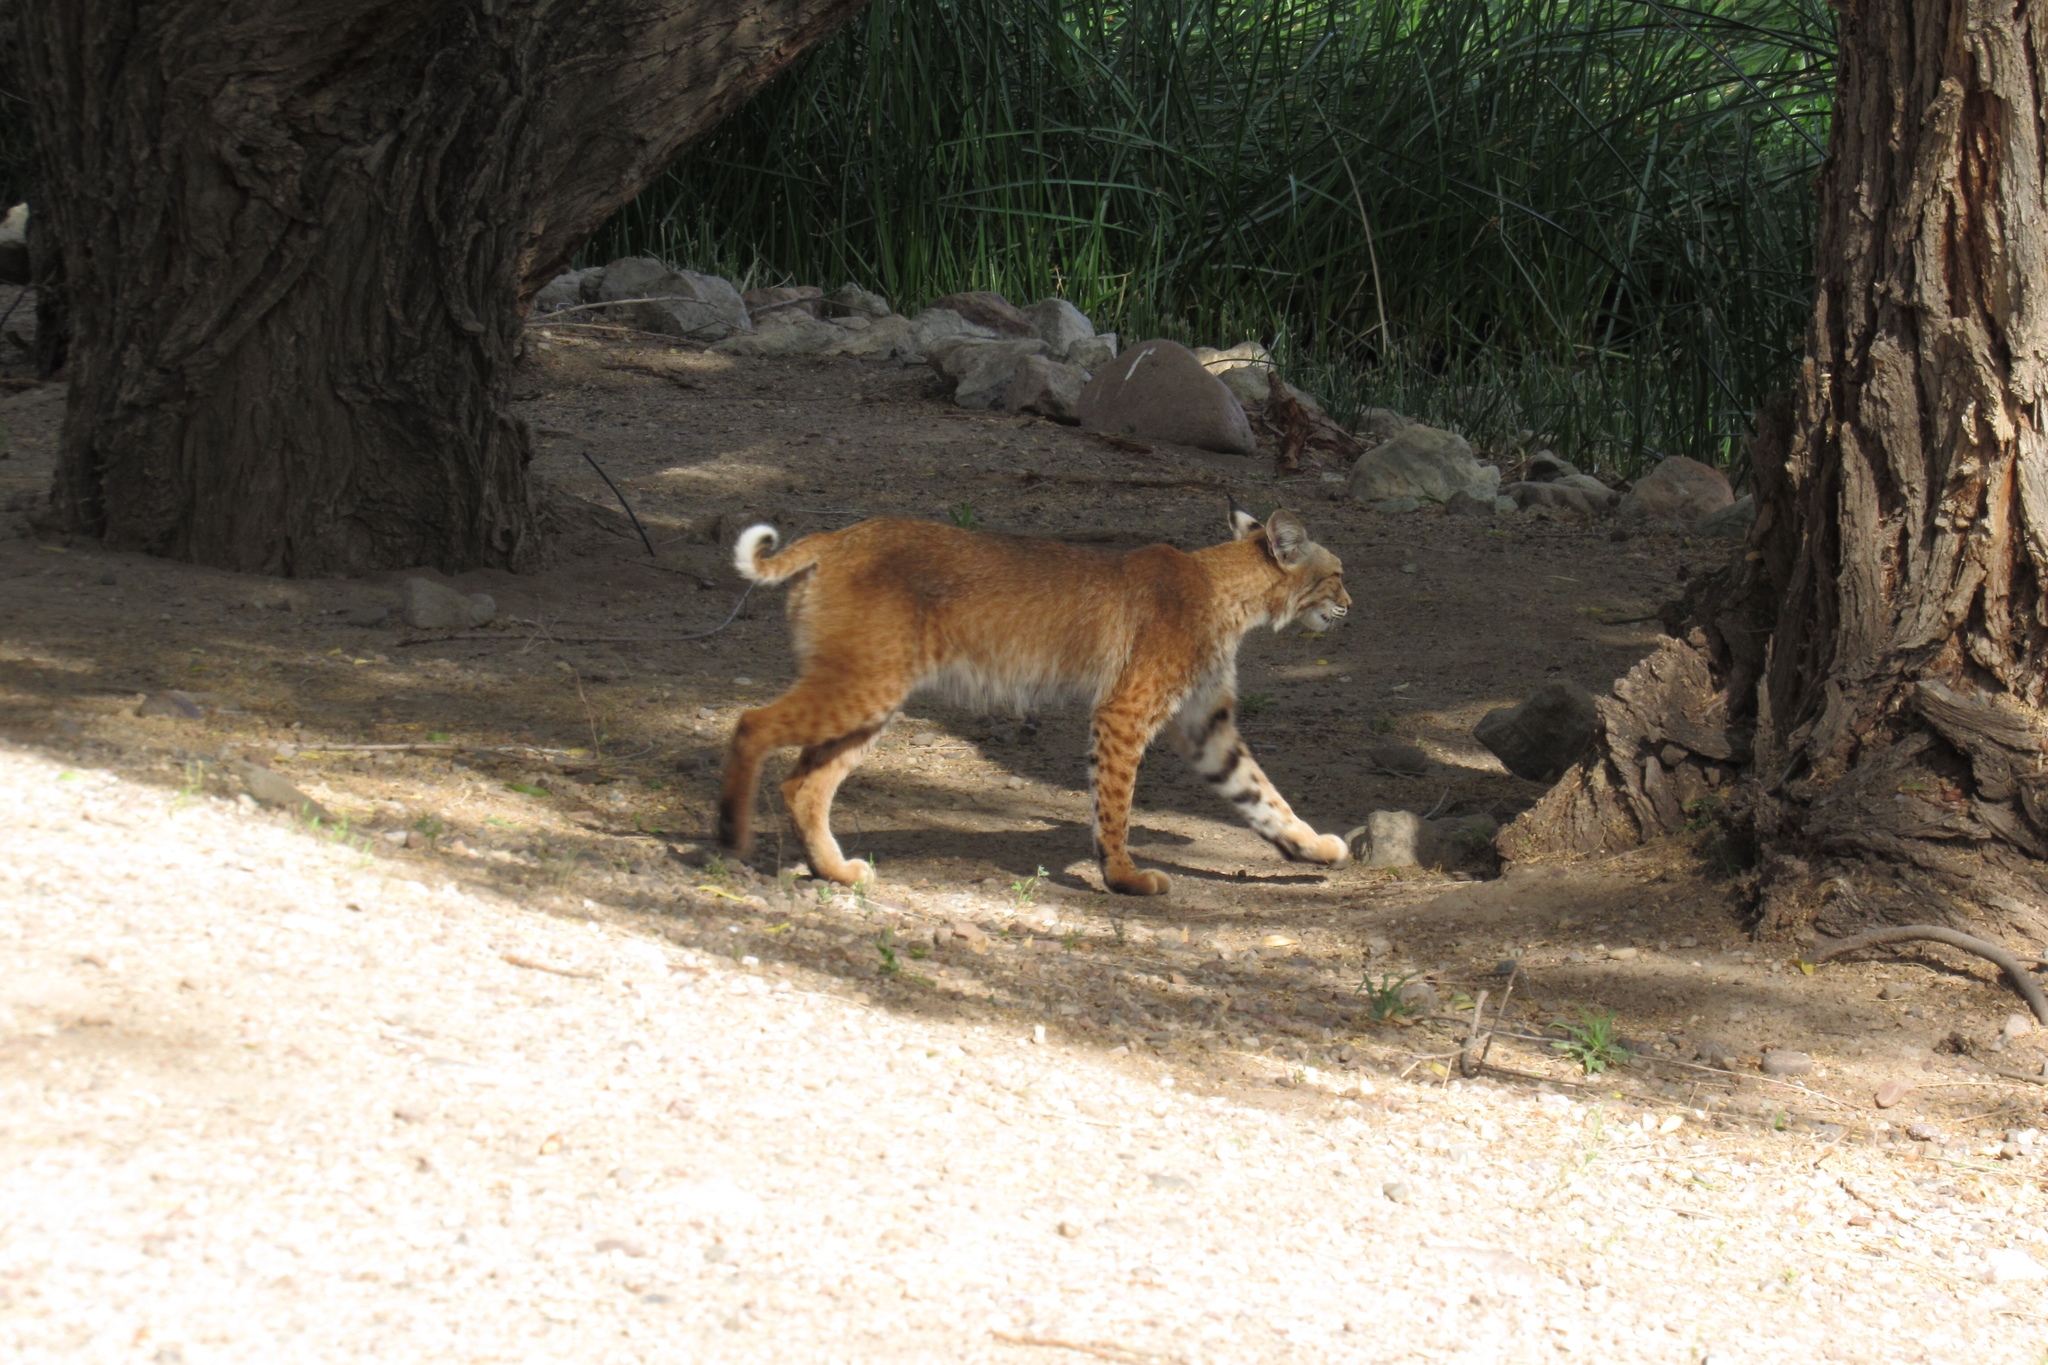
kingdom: Animalia
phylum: Chordata
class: Mammalia
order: Carnivora
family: Felidae
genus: Lynx
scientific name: Lynx rufus
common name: Bobcat
